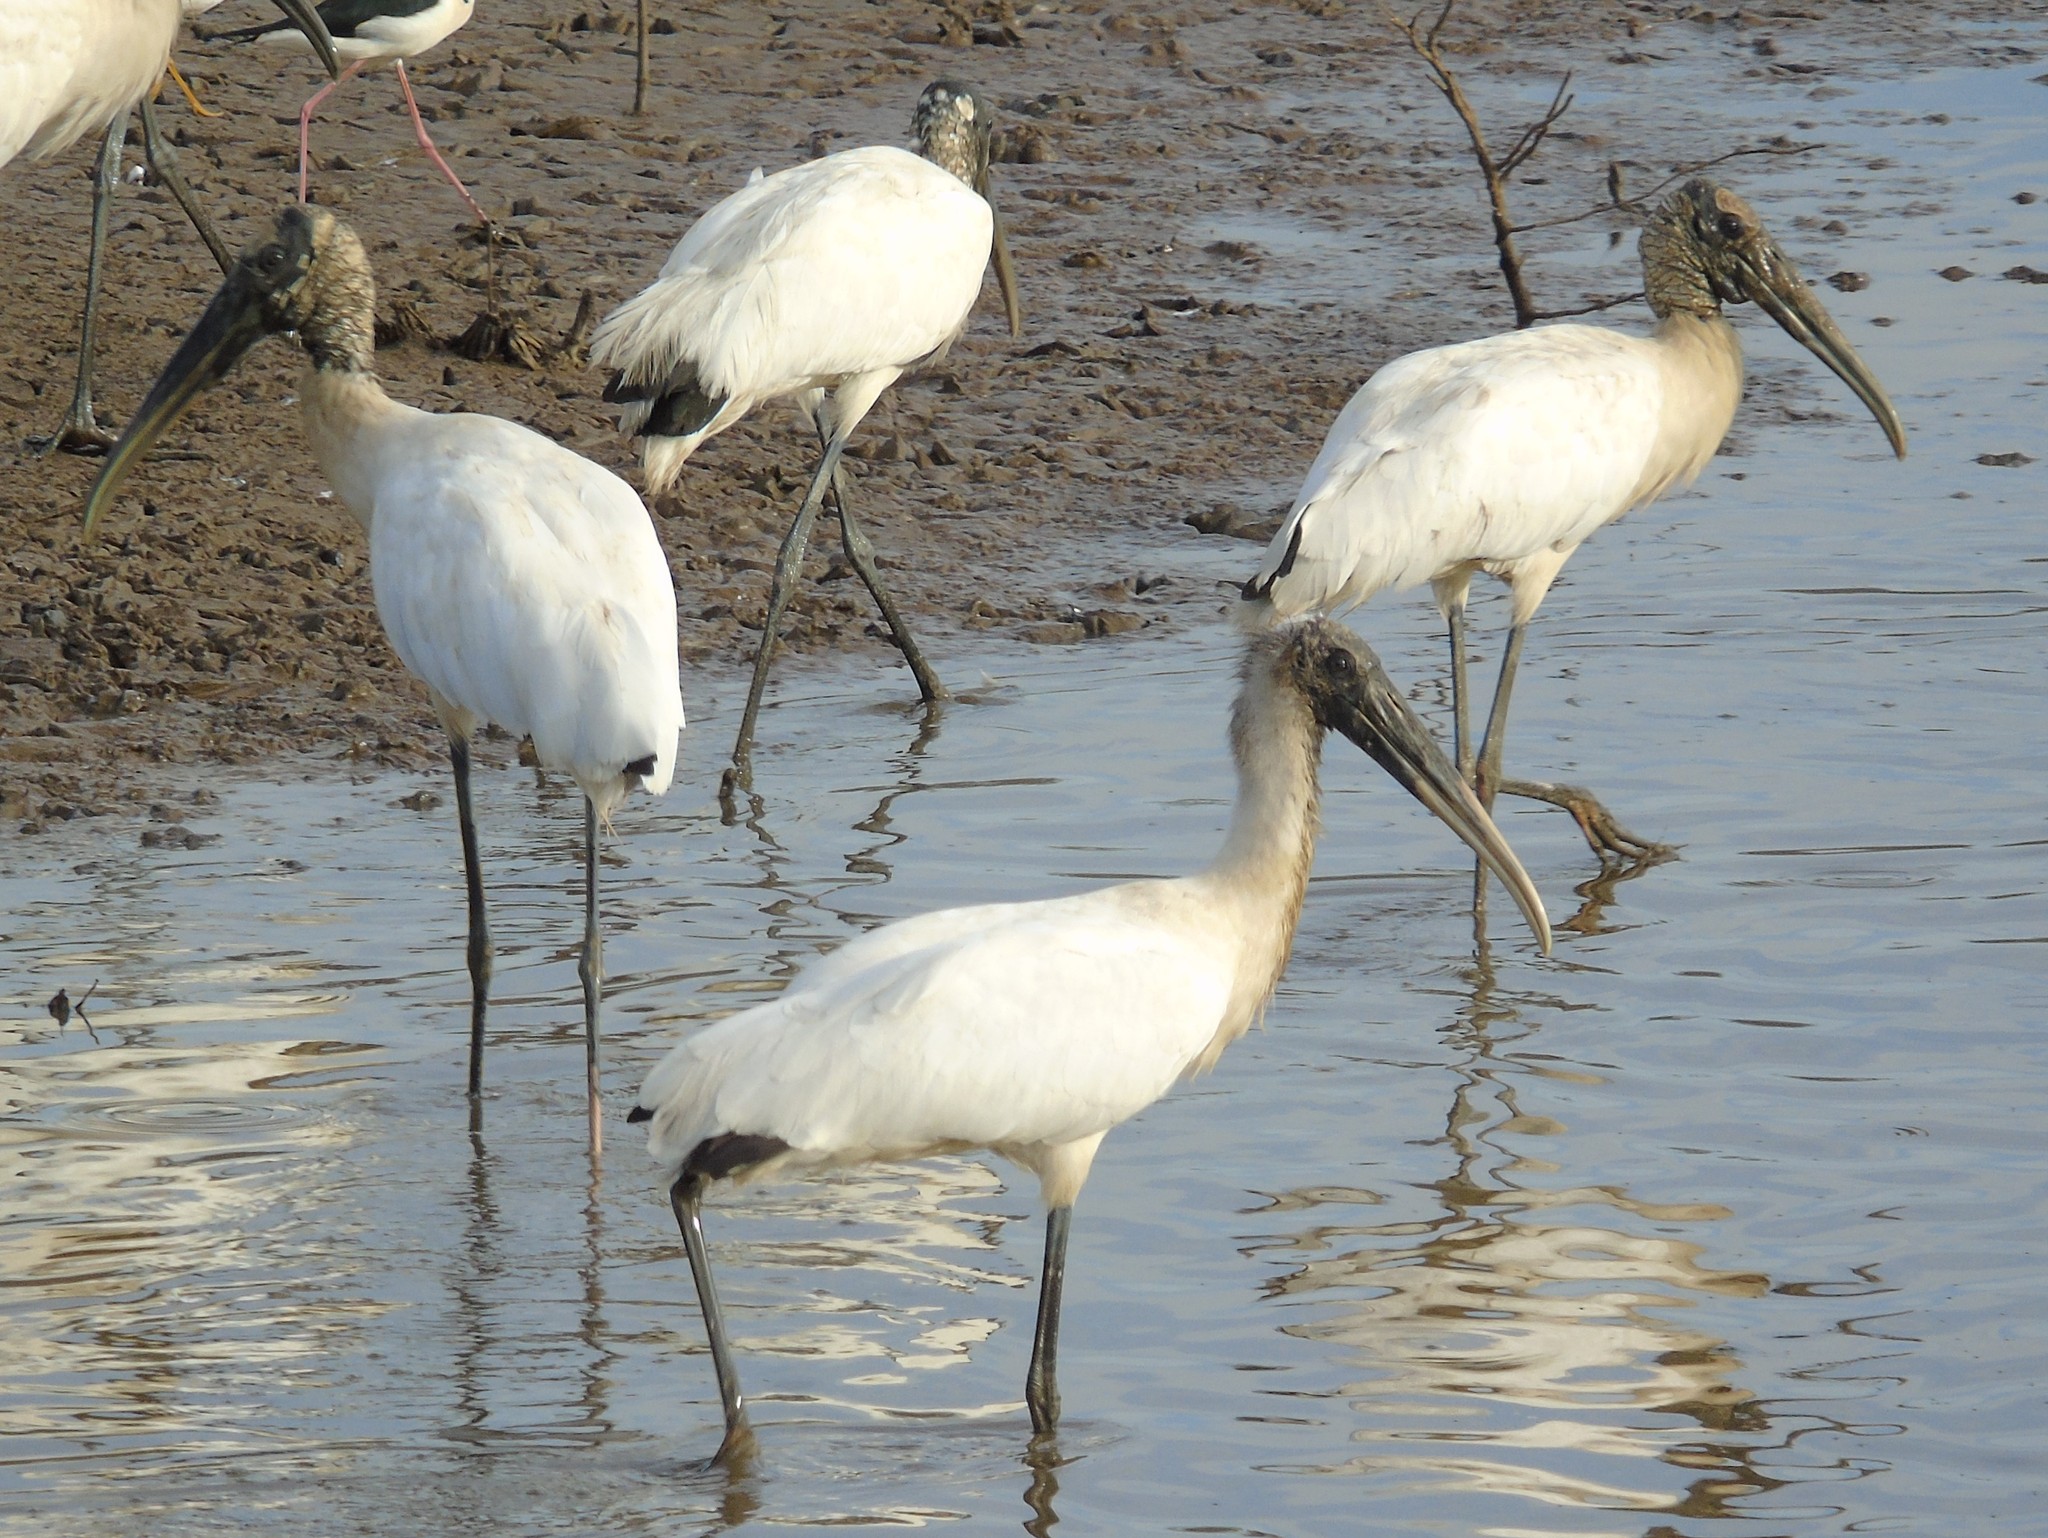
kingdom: Animalia
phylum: Chordata
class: Aves
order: Ciconiiformes
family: Ciconiidae
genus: Mycteria
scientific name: Mycteria americana
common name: Wood stork
